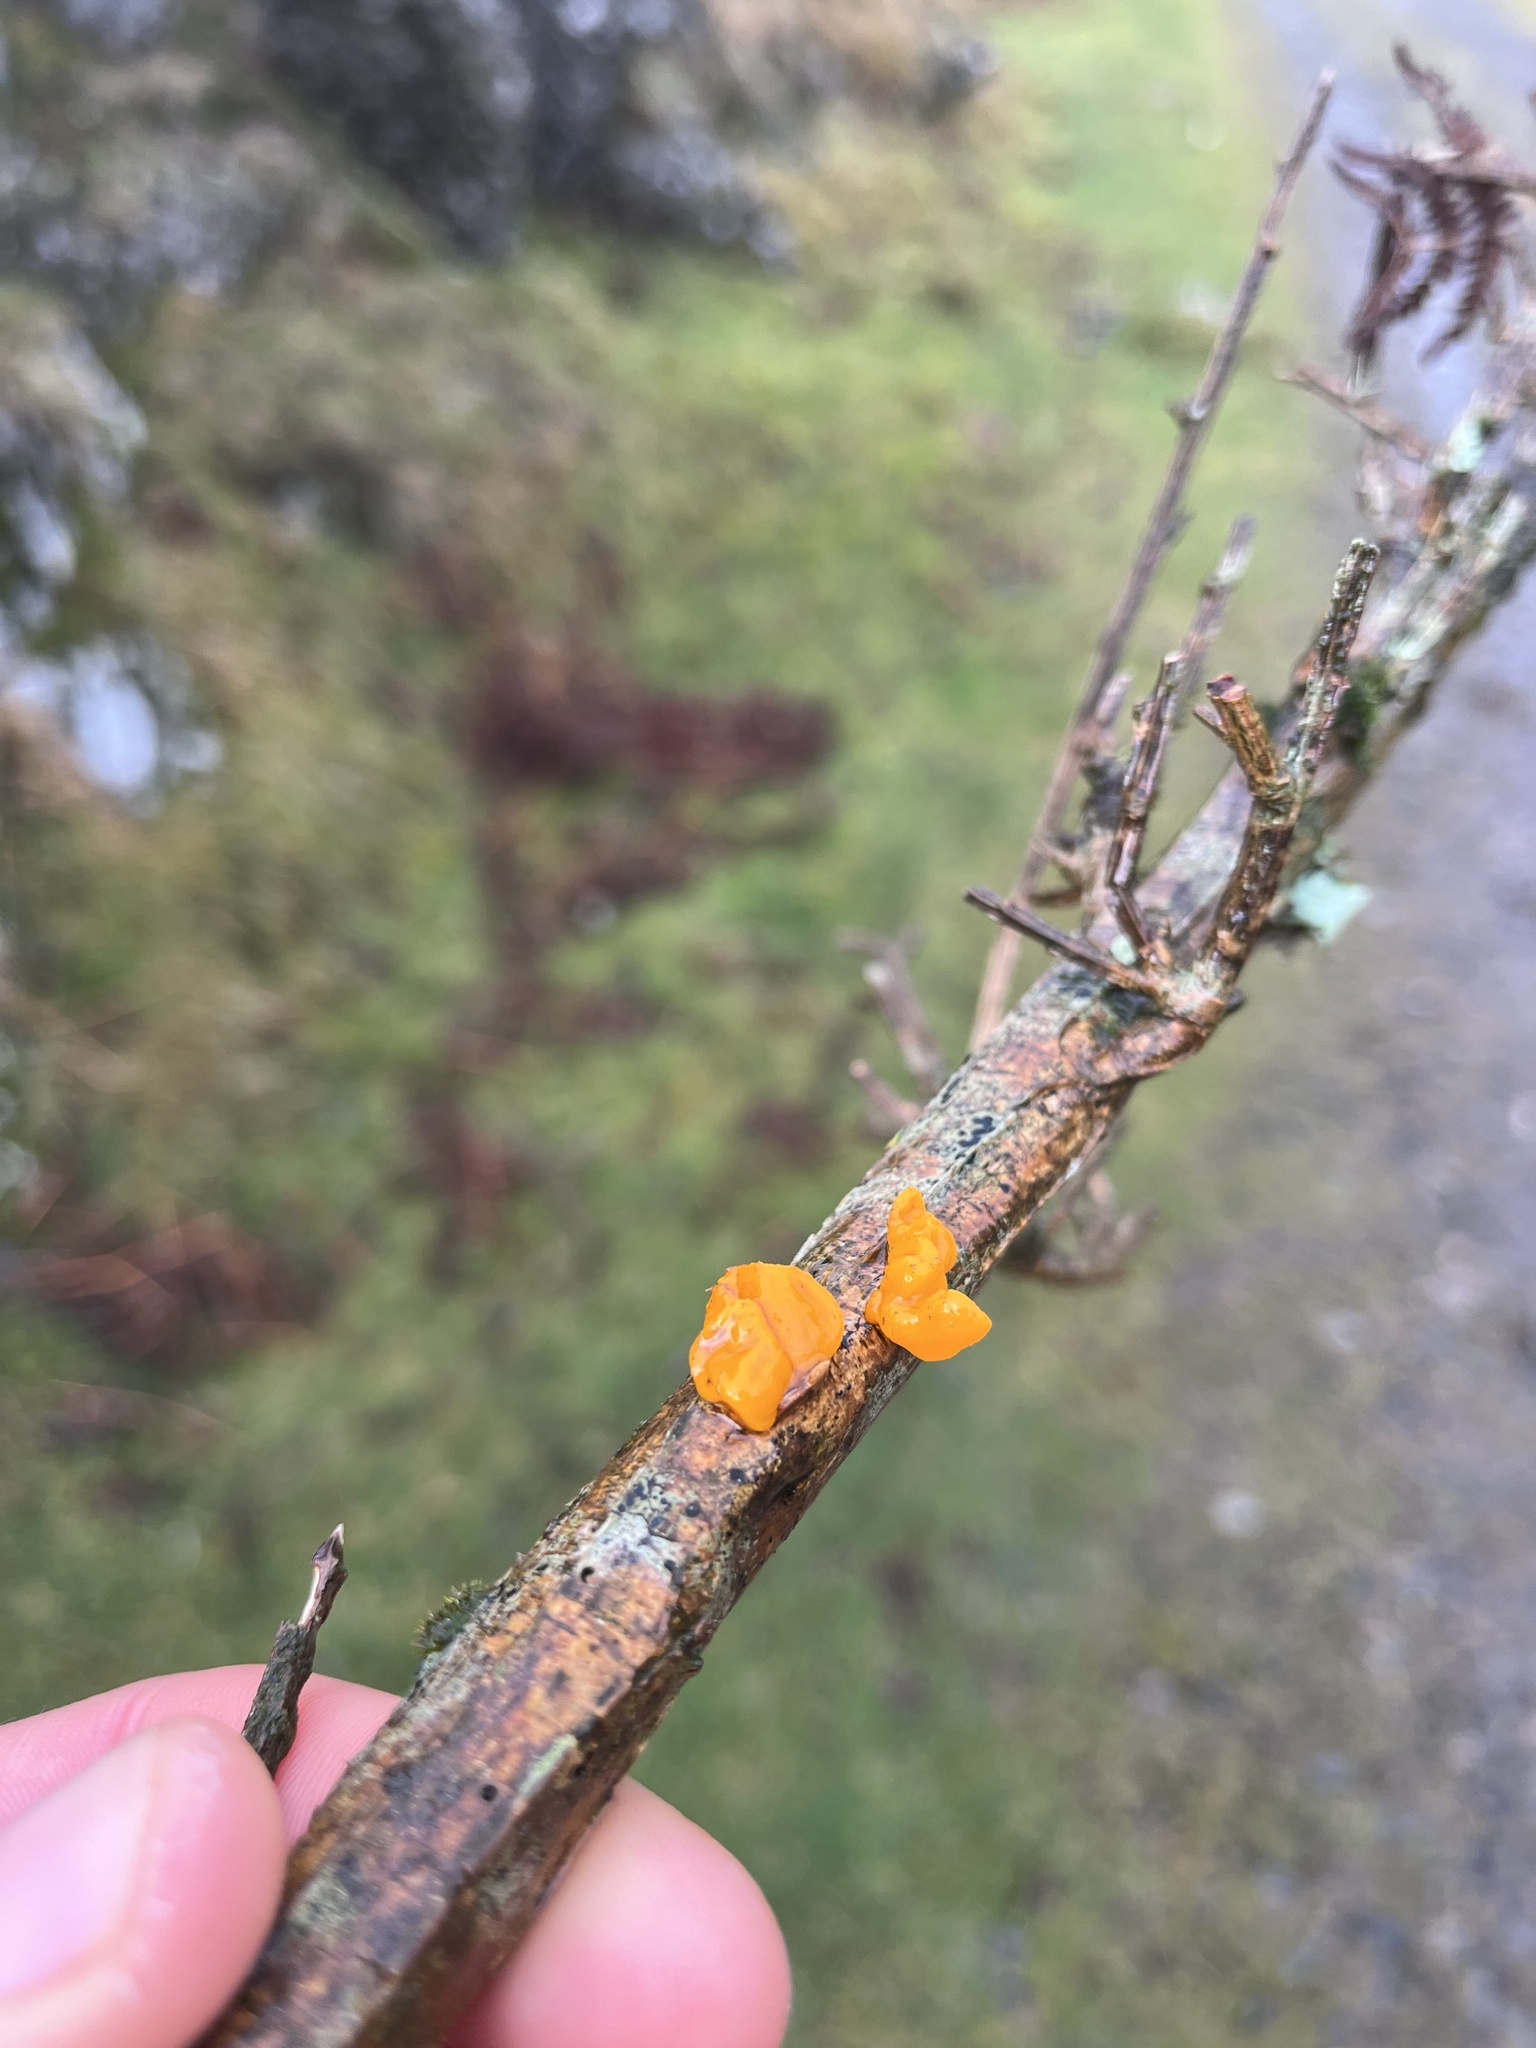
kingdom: Fungi
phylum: Basidiomycota
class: Tremellomycetes
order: Tremellales
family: Tremellaceae
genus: Tremella
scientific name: Tremella mesenterica
